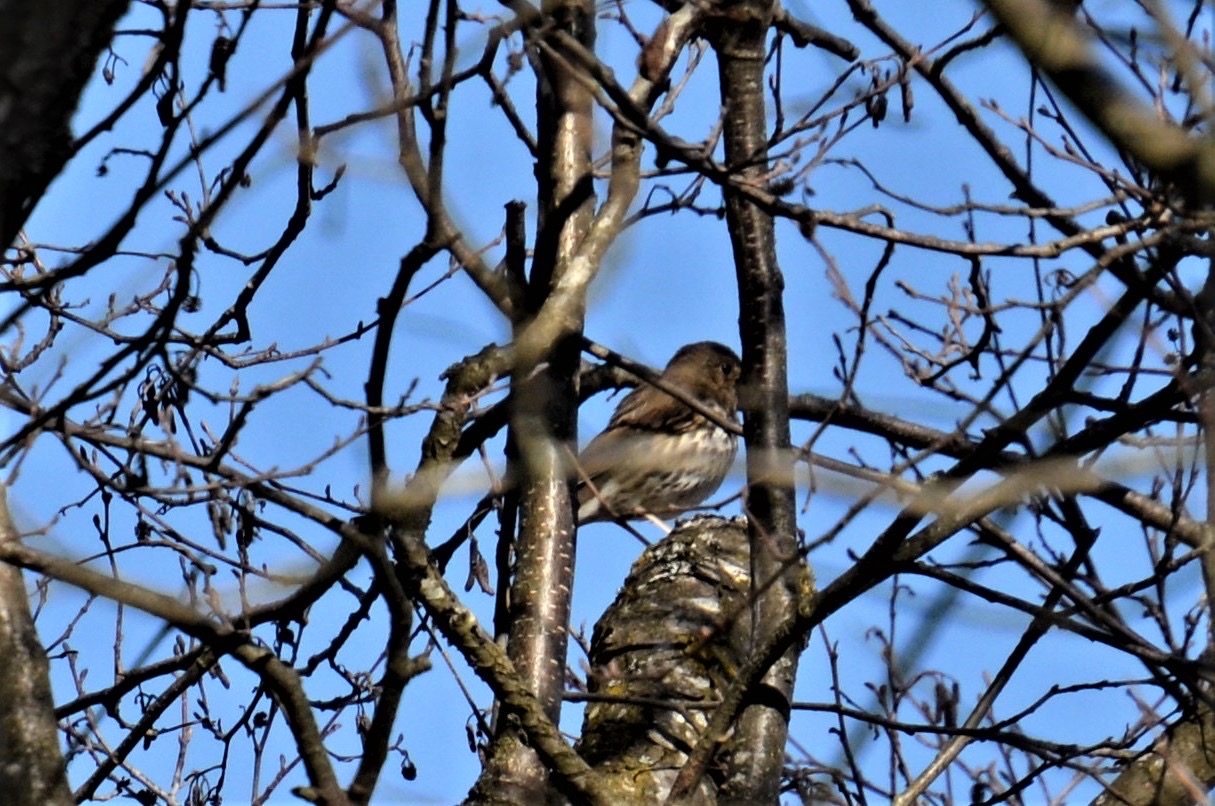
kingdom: Animalia
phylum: Chordata
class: Aves
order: Passeriformes
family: Turdidae
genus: Turdus
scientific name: Turdus philomelos
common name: Song thrush
